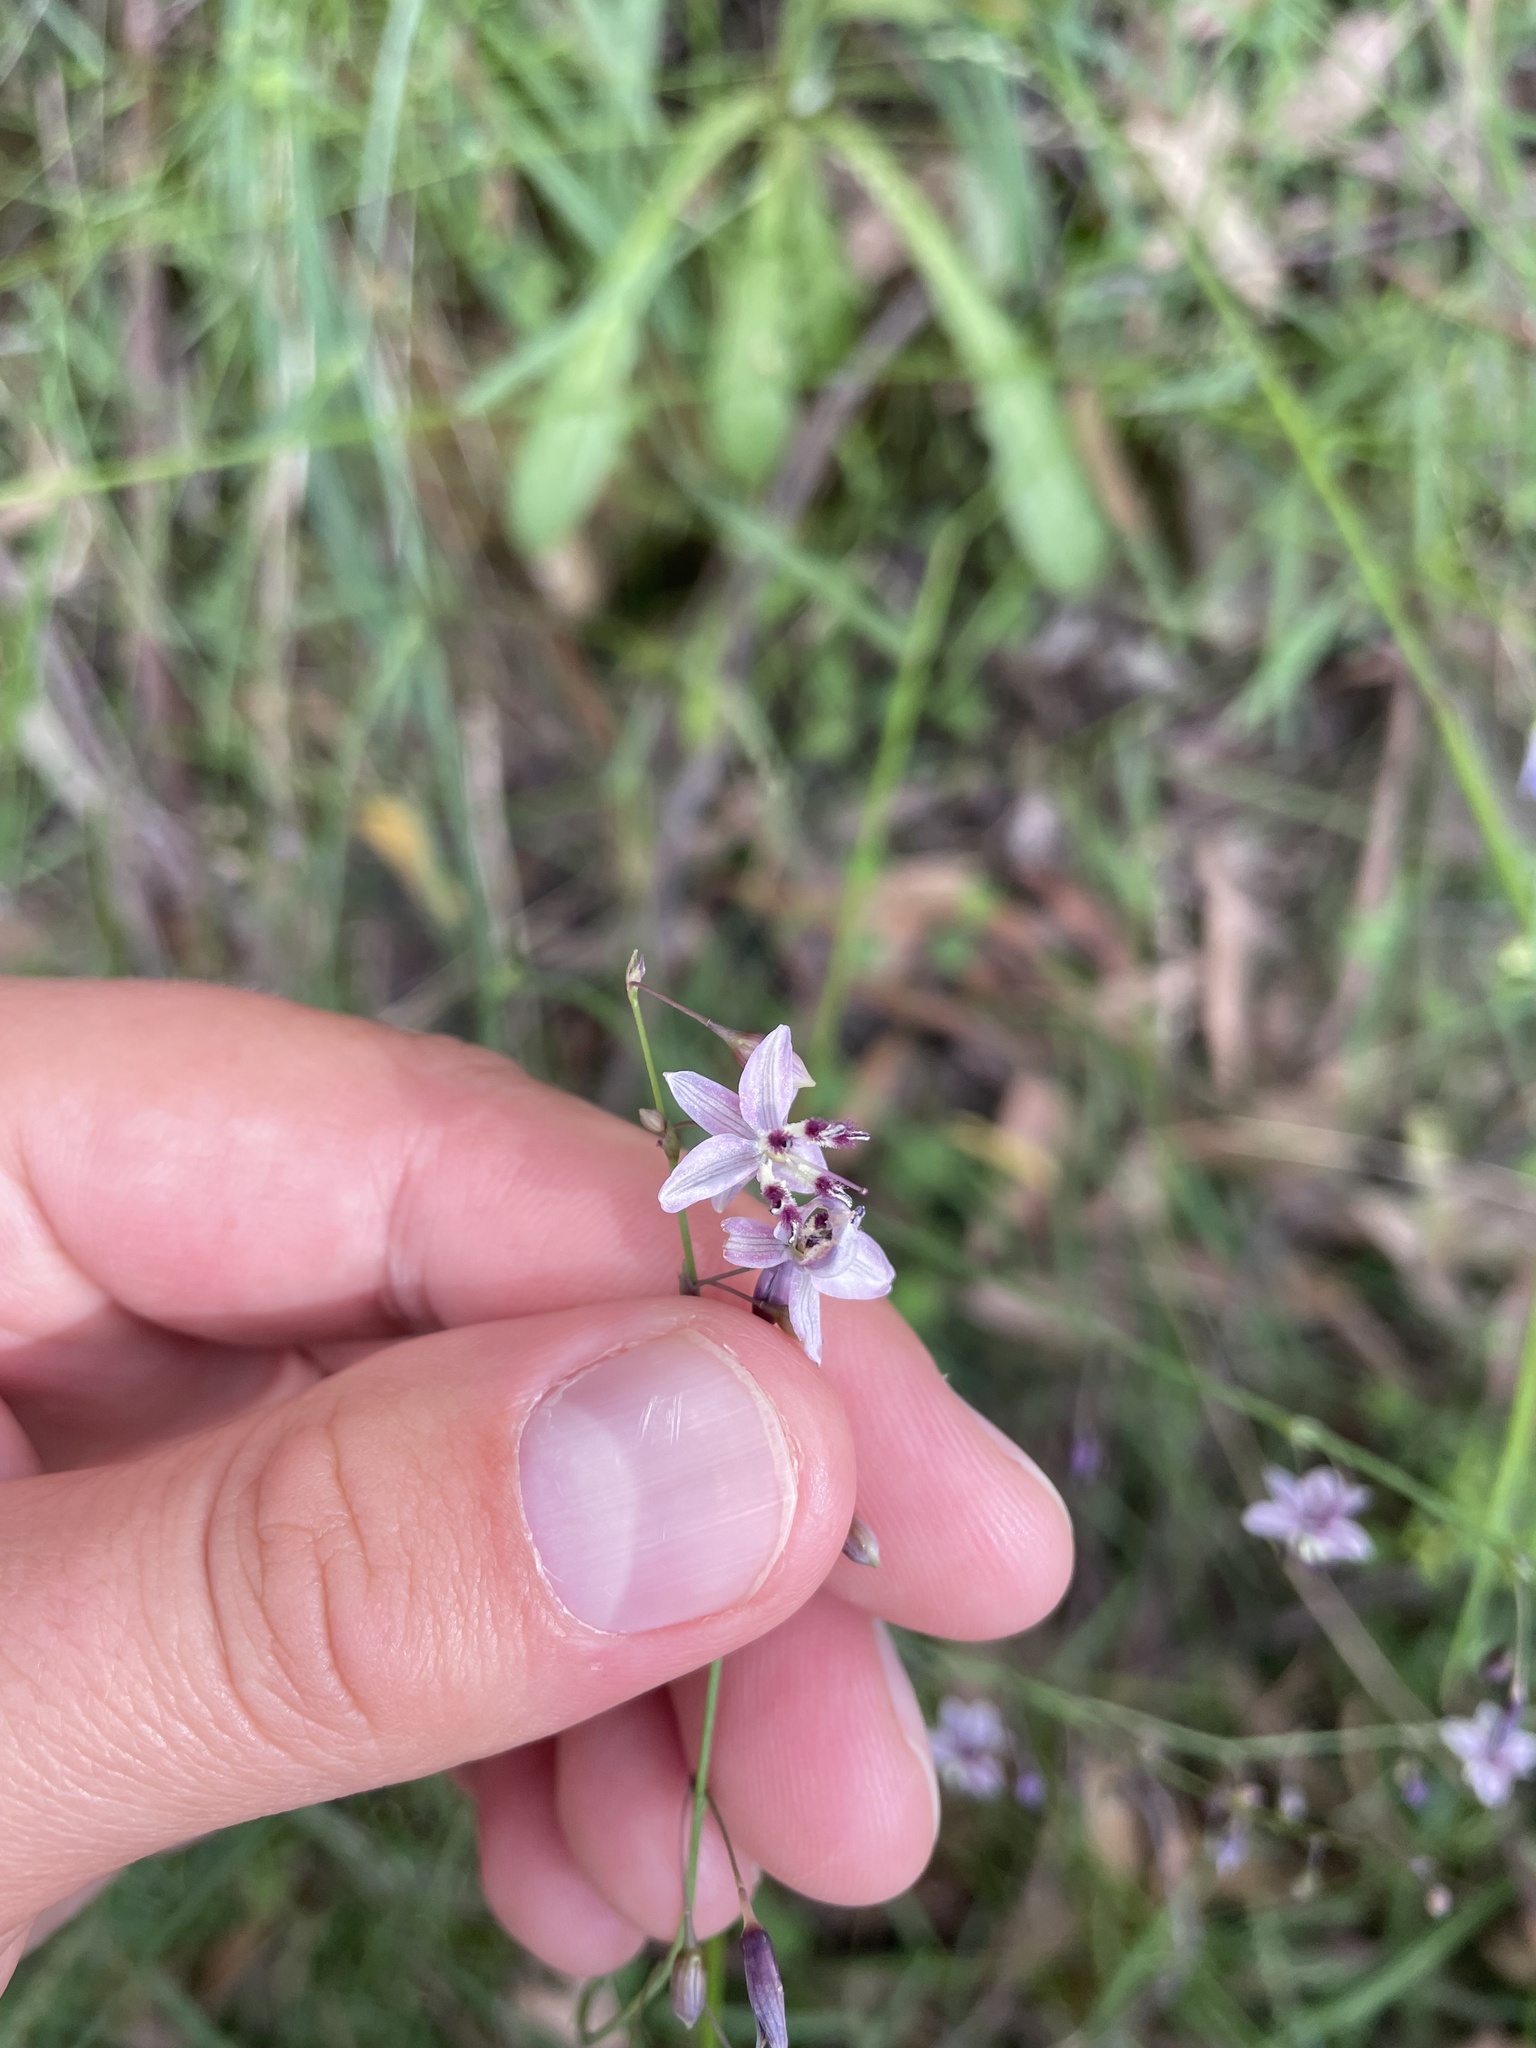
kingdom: Plantae
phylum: Tracheophyta
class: Liliopsida
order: Asparagales
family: Asparagaceae
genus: Arthropodium
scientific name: Arthropodium milleflorum
